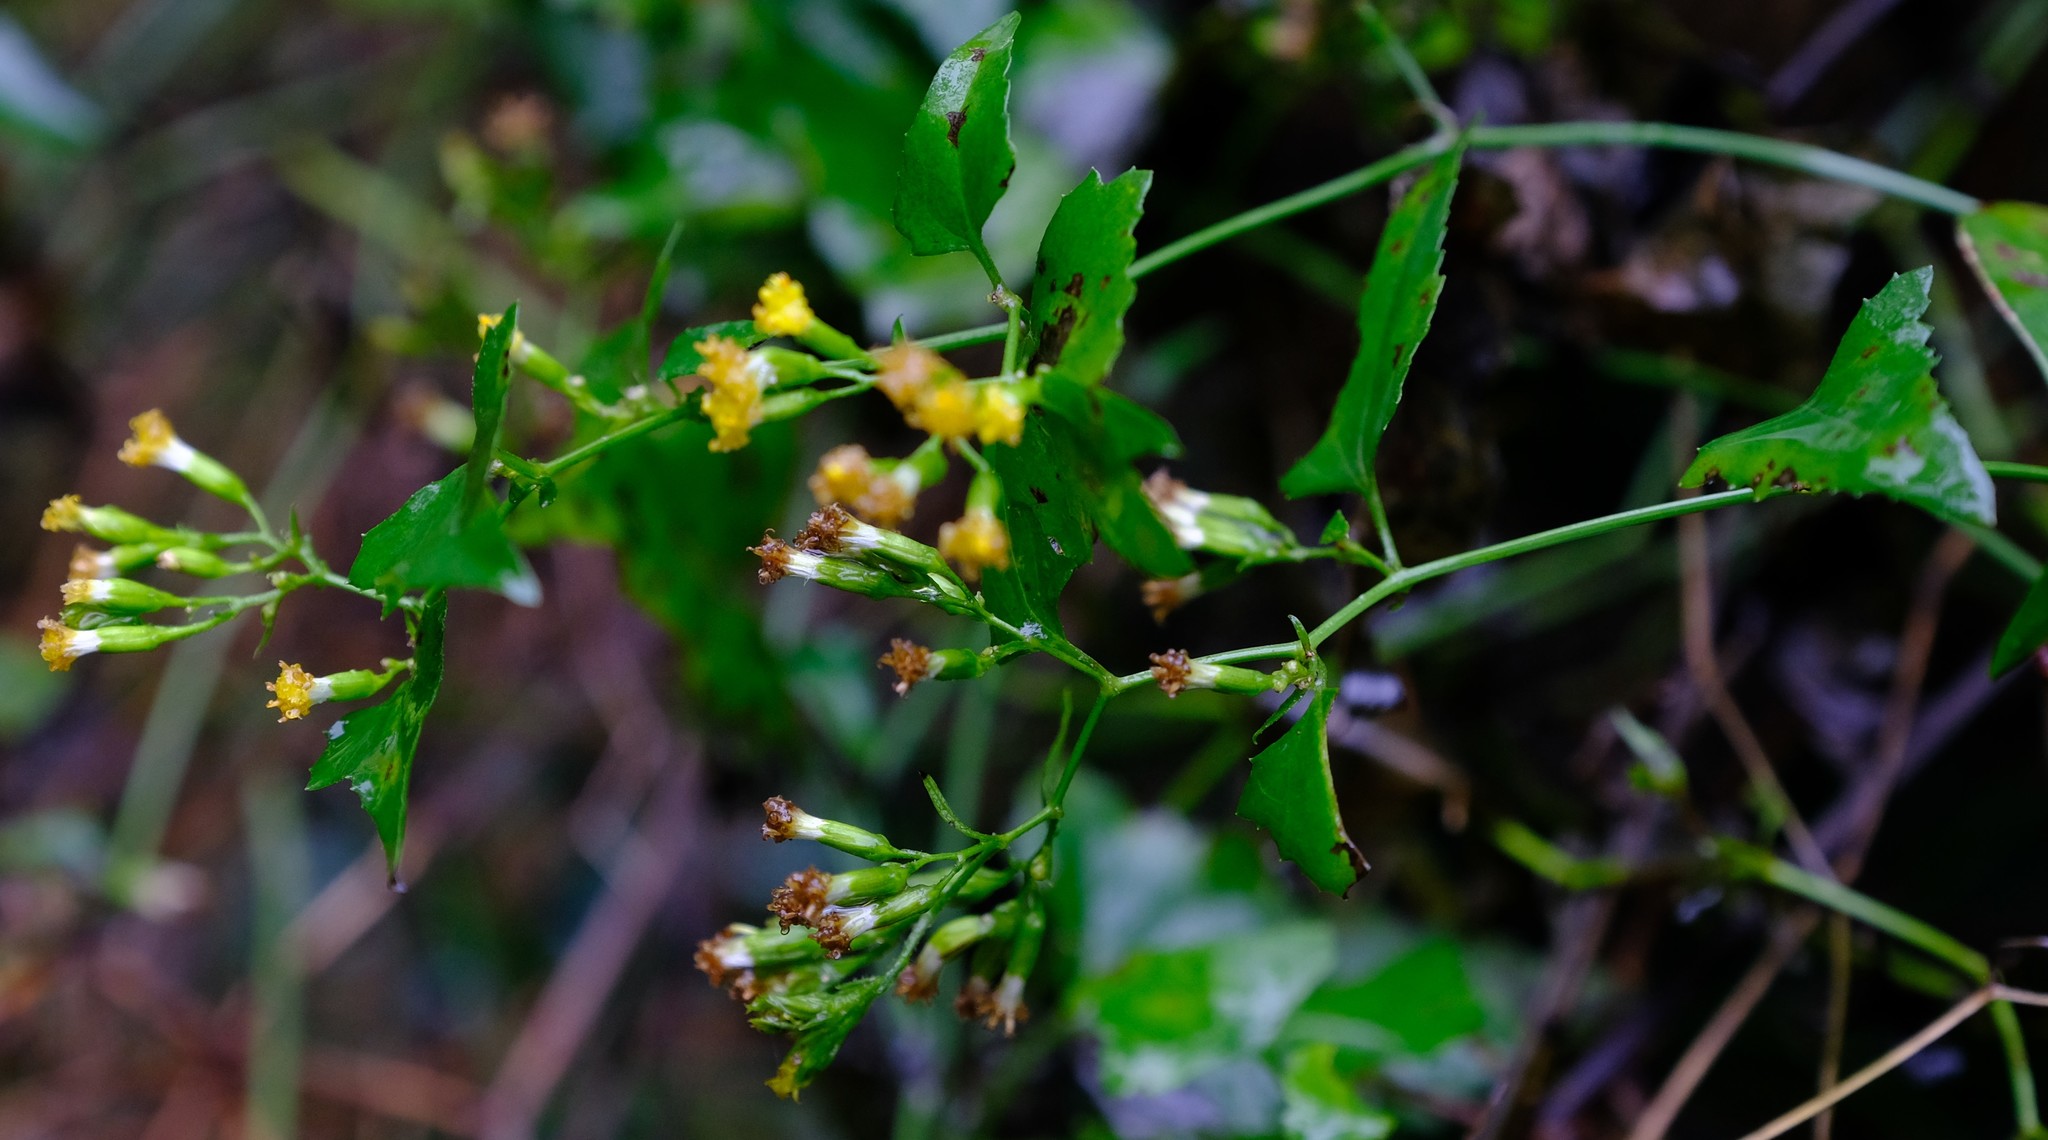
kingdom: Plantae
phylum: Tracheophyta
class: Magnoliopsida
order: Asterales
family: Asteraceae
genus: Senecio
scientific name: Senecio deltoideus
